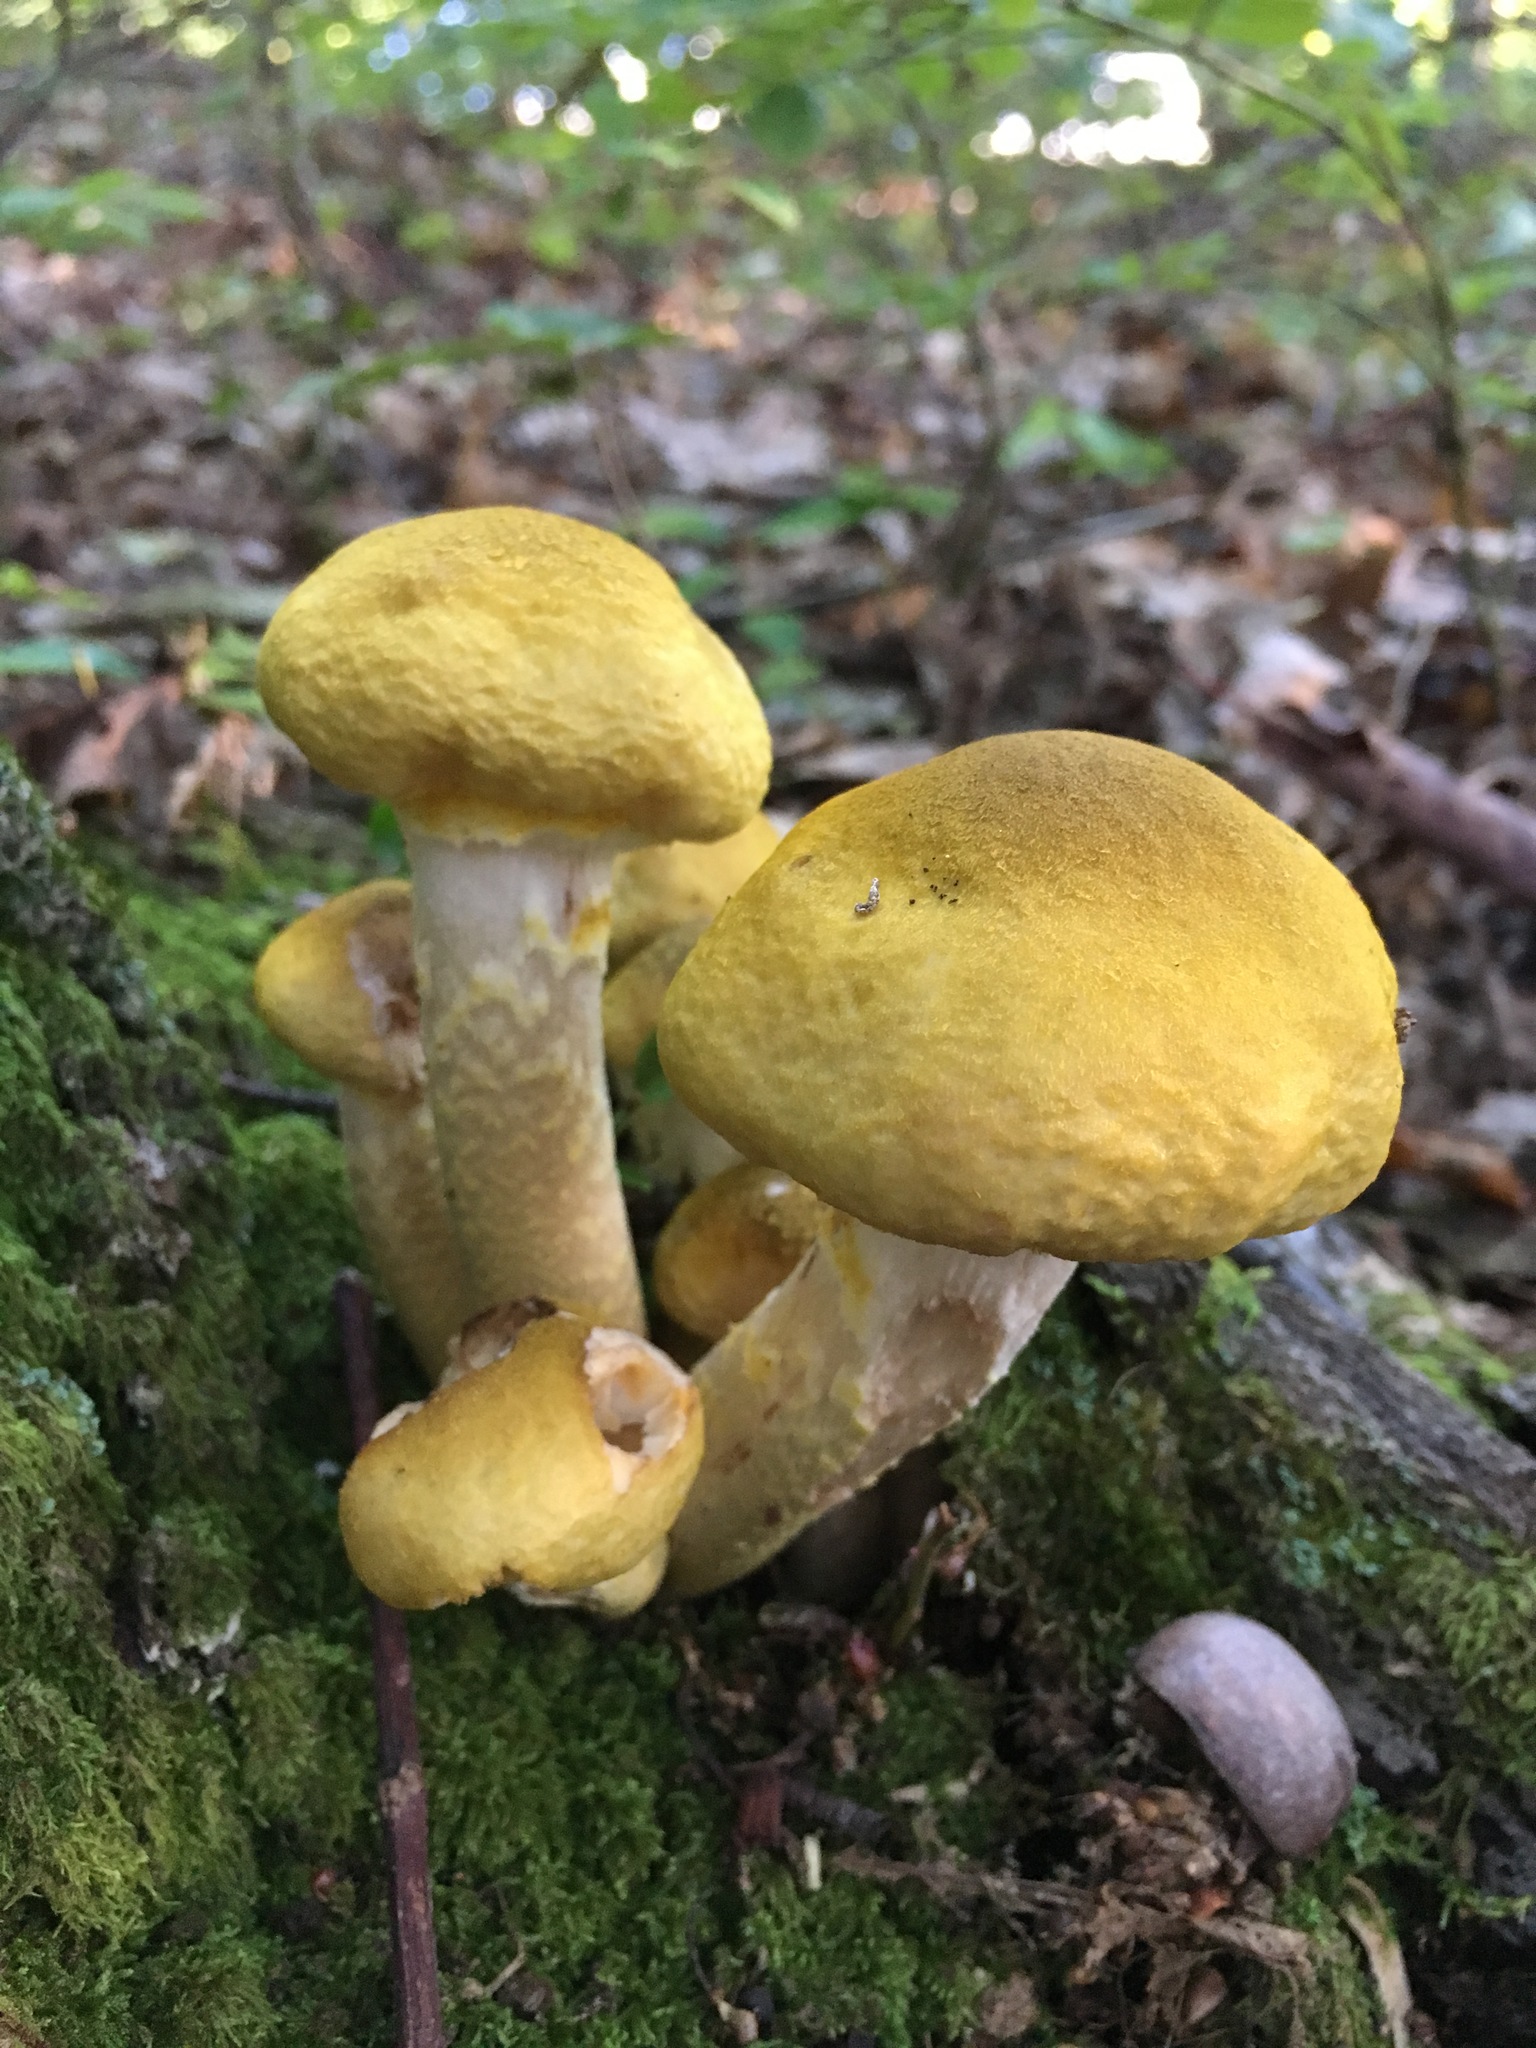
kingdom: Fungi
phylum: Basidiomycota
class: Agaricomycetes
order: Agaricales
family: Physalacriaceae
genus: Armillaria
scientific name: Armillaria mellea
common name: Honey fungus
